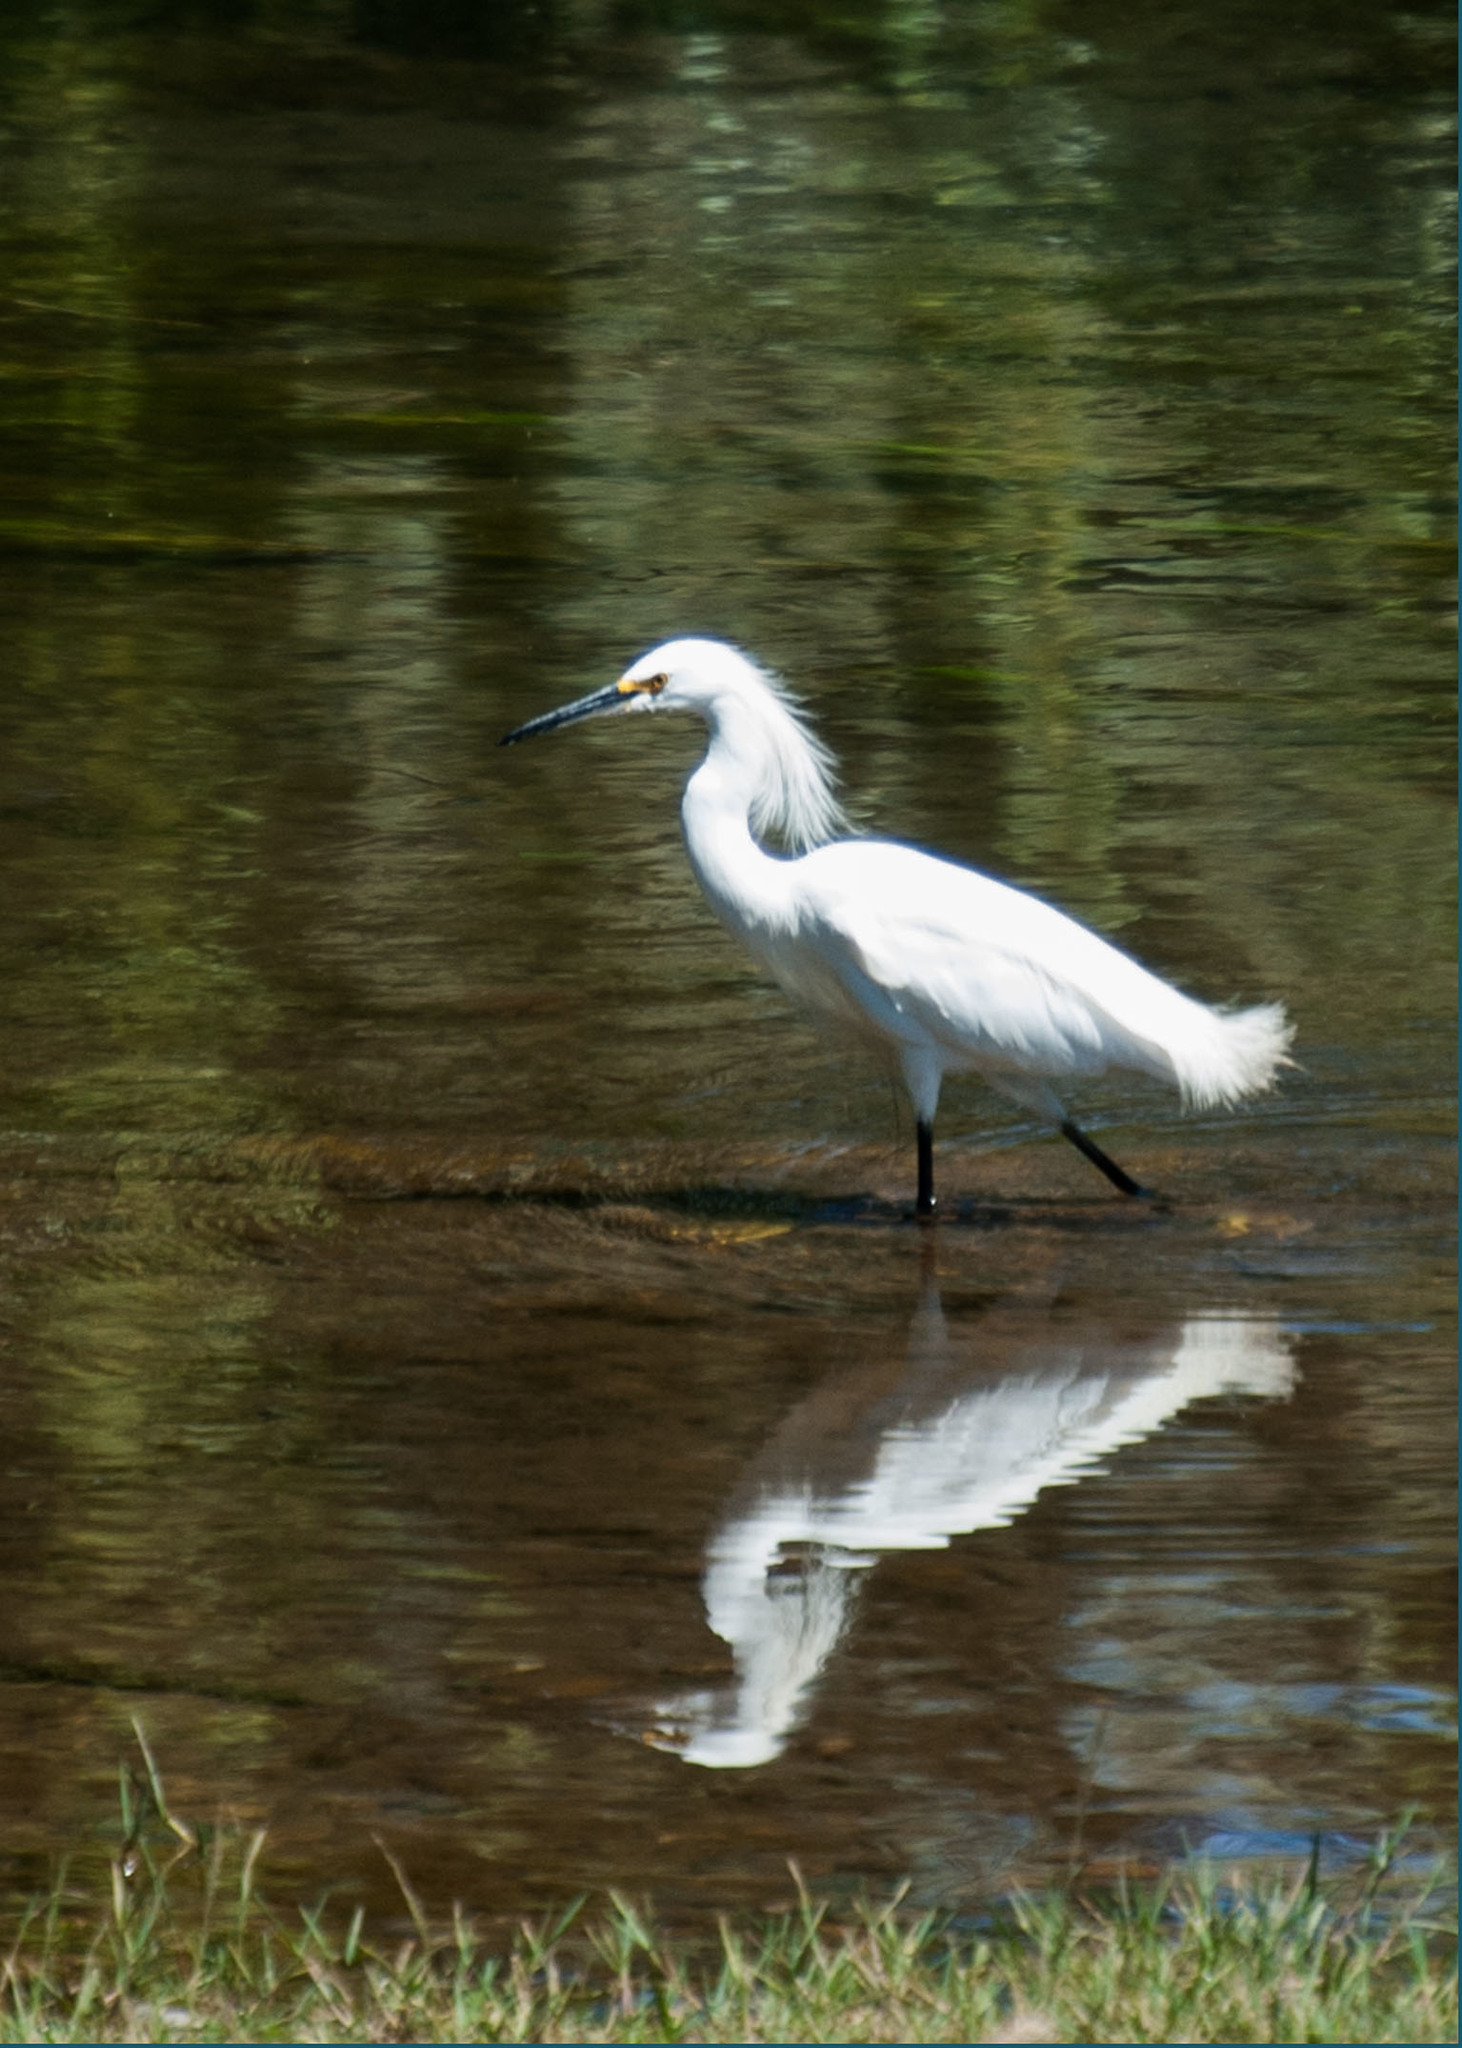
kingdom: Animalia
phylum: Chordata
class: Aves
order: Pelecaniformes
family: Ardeidae
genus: Egretta
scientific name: Egretta thula
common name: Snowy egret
